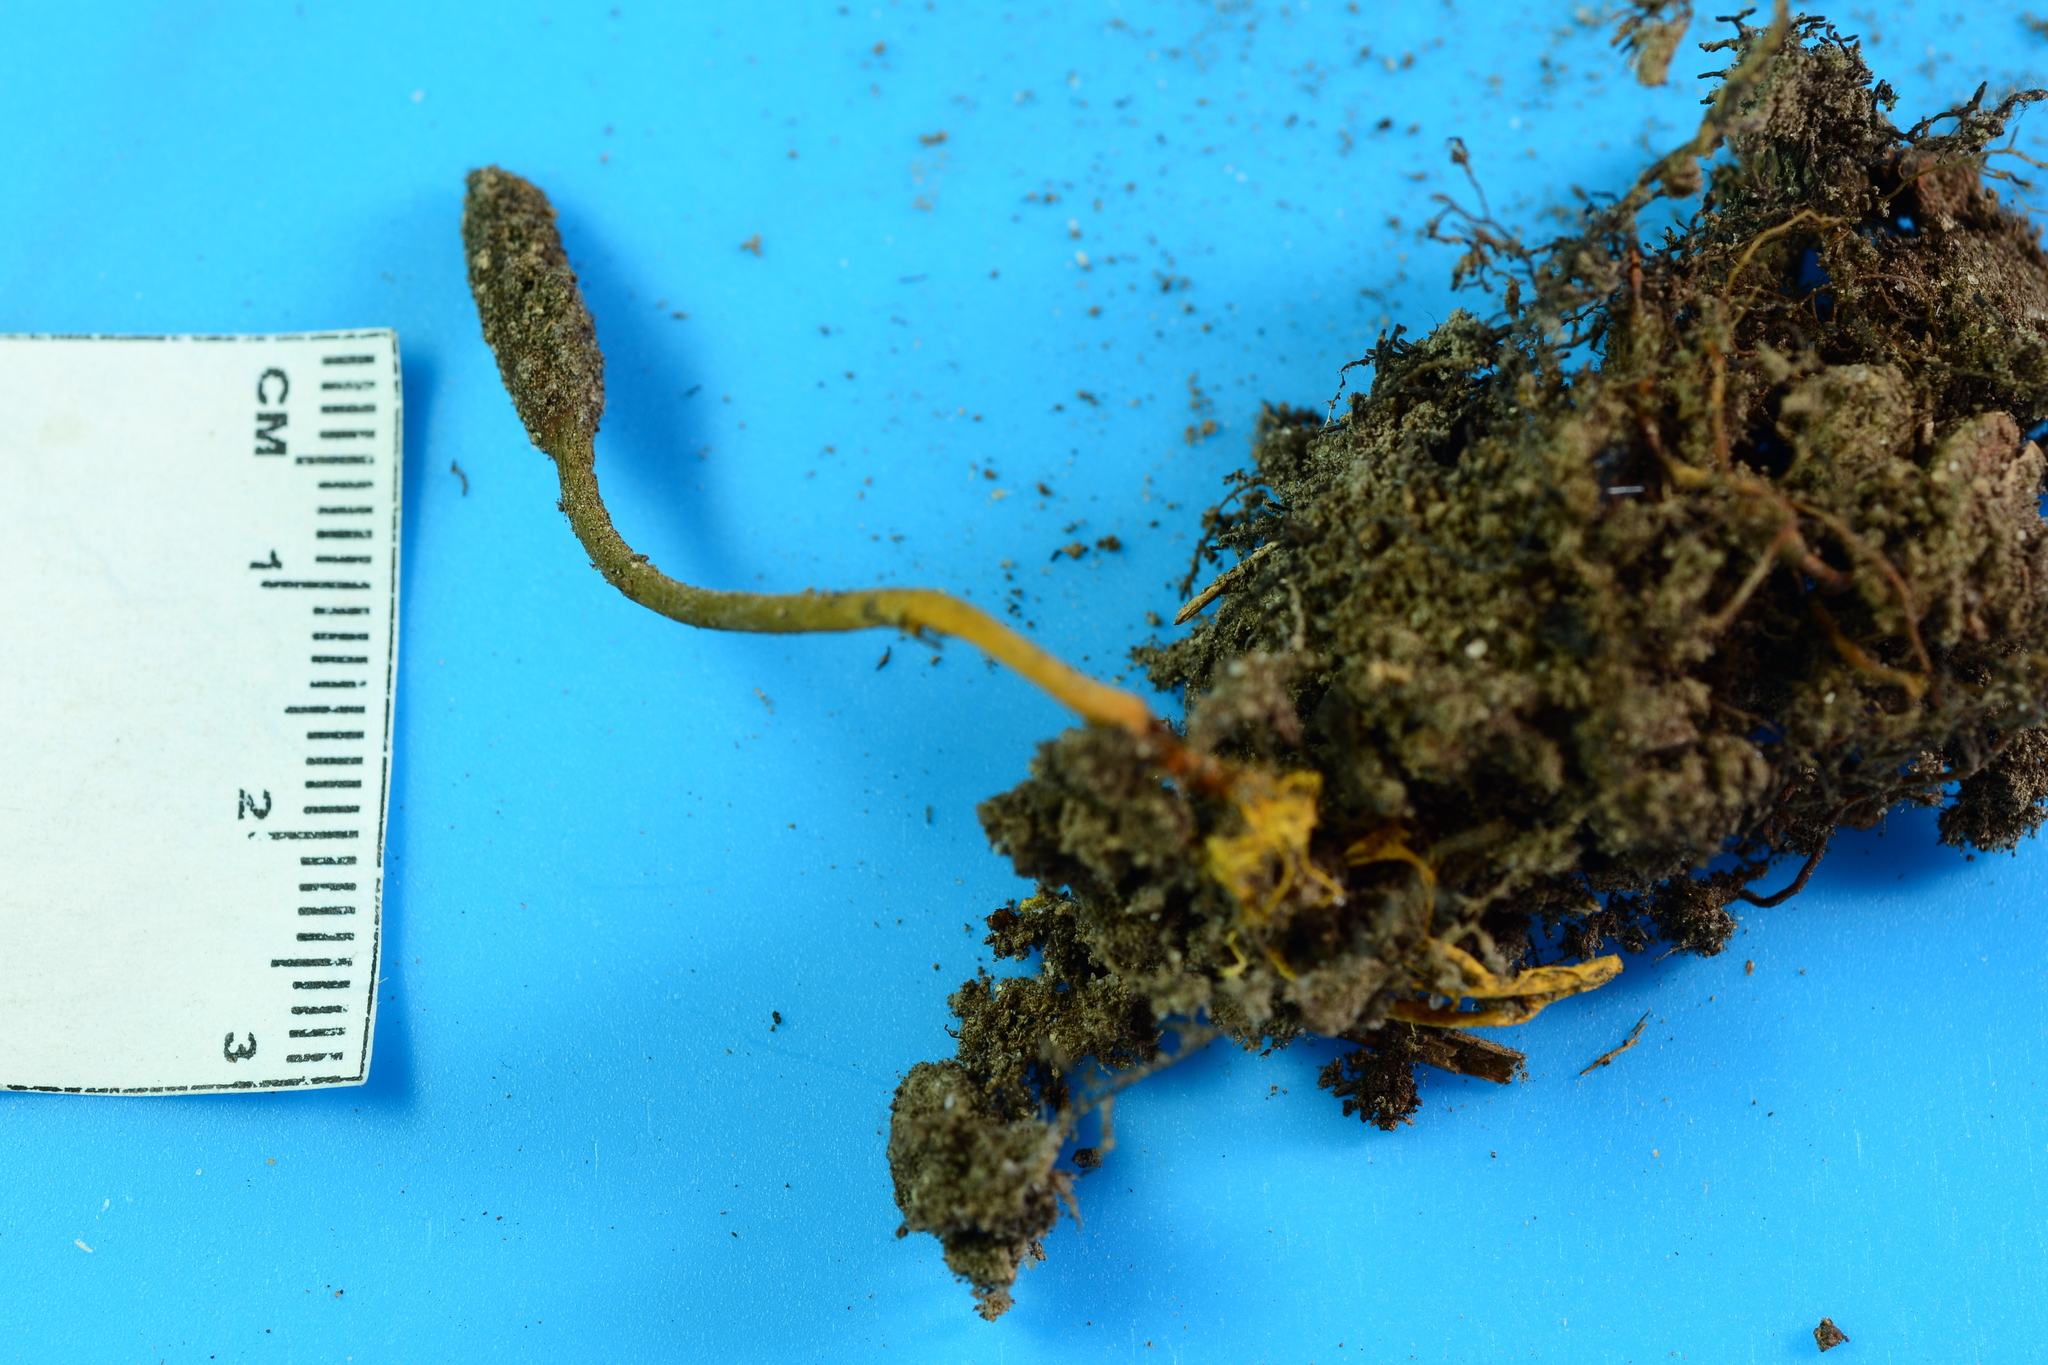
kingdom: Fungi
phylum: Ascomycota
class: Sordariomycetes
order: Hypocreales
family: Ophiocordycipitaceae
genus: Tolypocladium
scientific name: Tolypocladium ophioglossoides
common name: Snaketongue truffleclub
